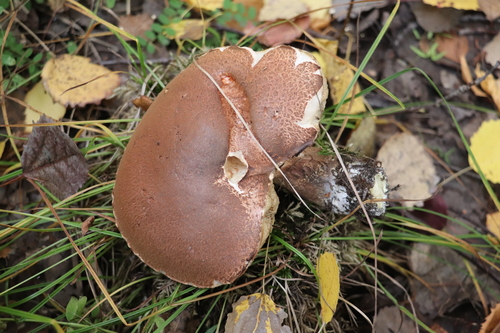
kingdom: Fungi
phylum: Basidiomycota
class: Agaricomycetes
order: Boletales
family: Boletaceae
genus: Leccinum
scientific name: Leccinum
